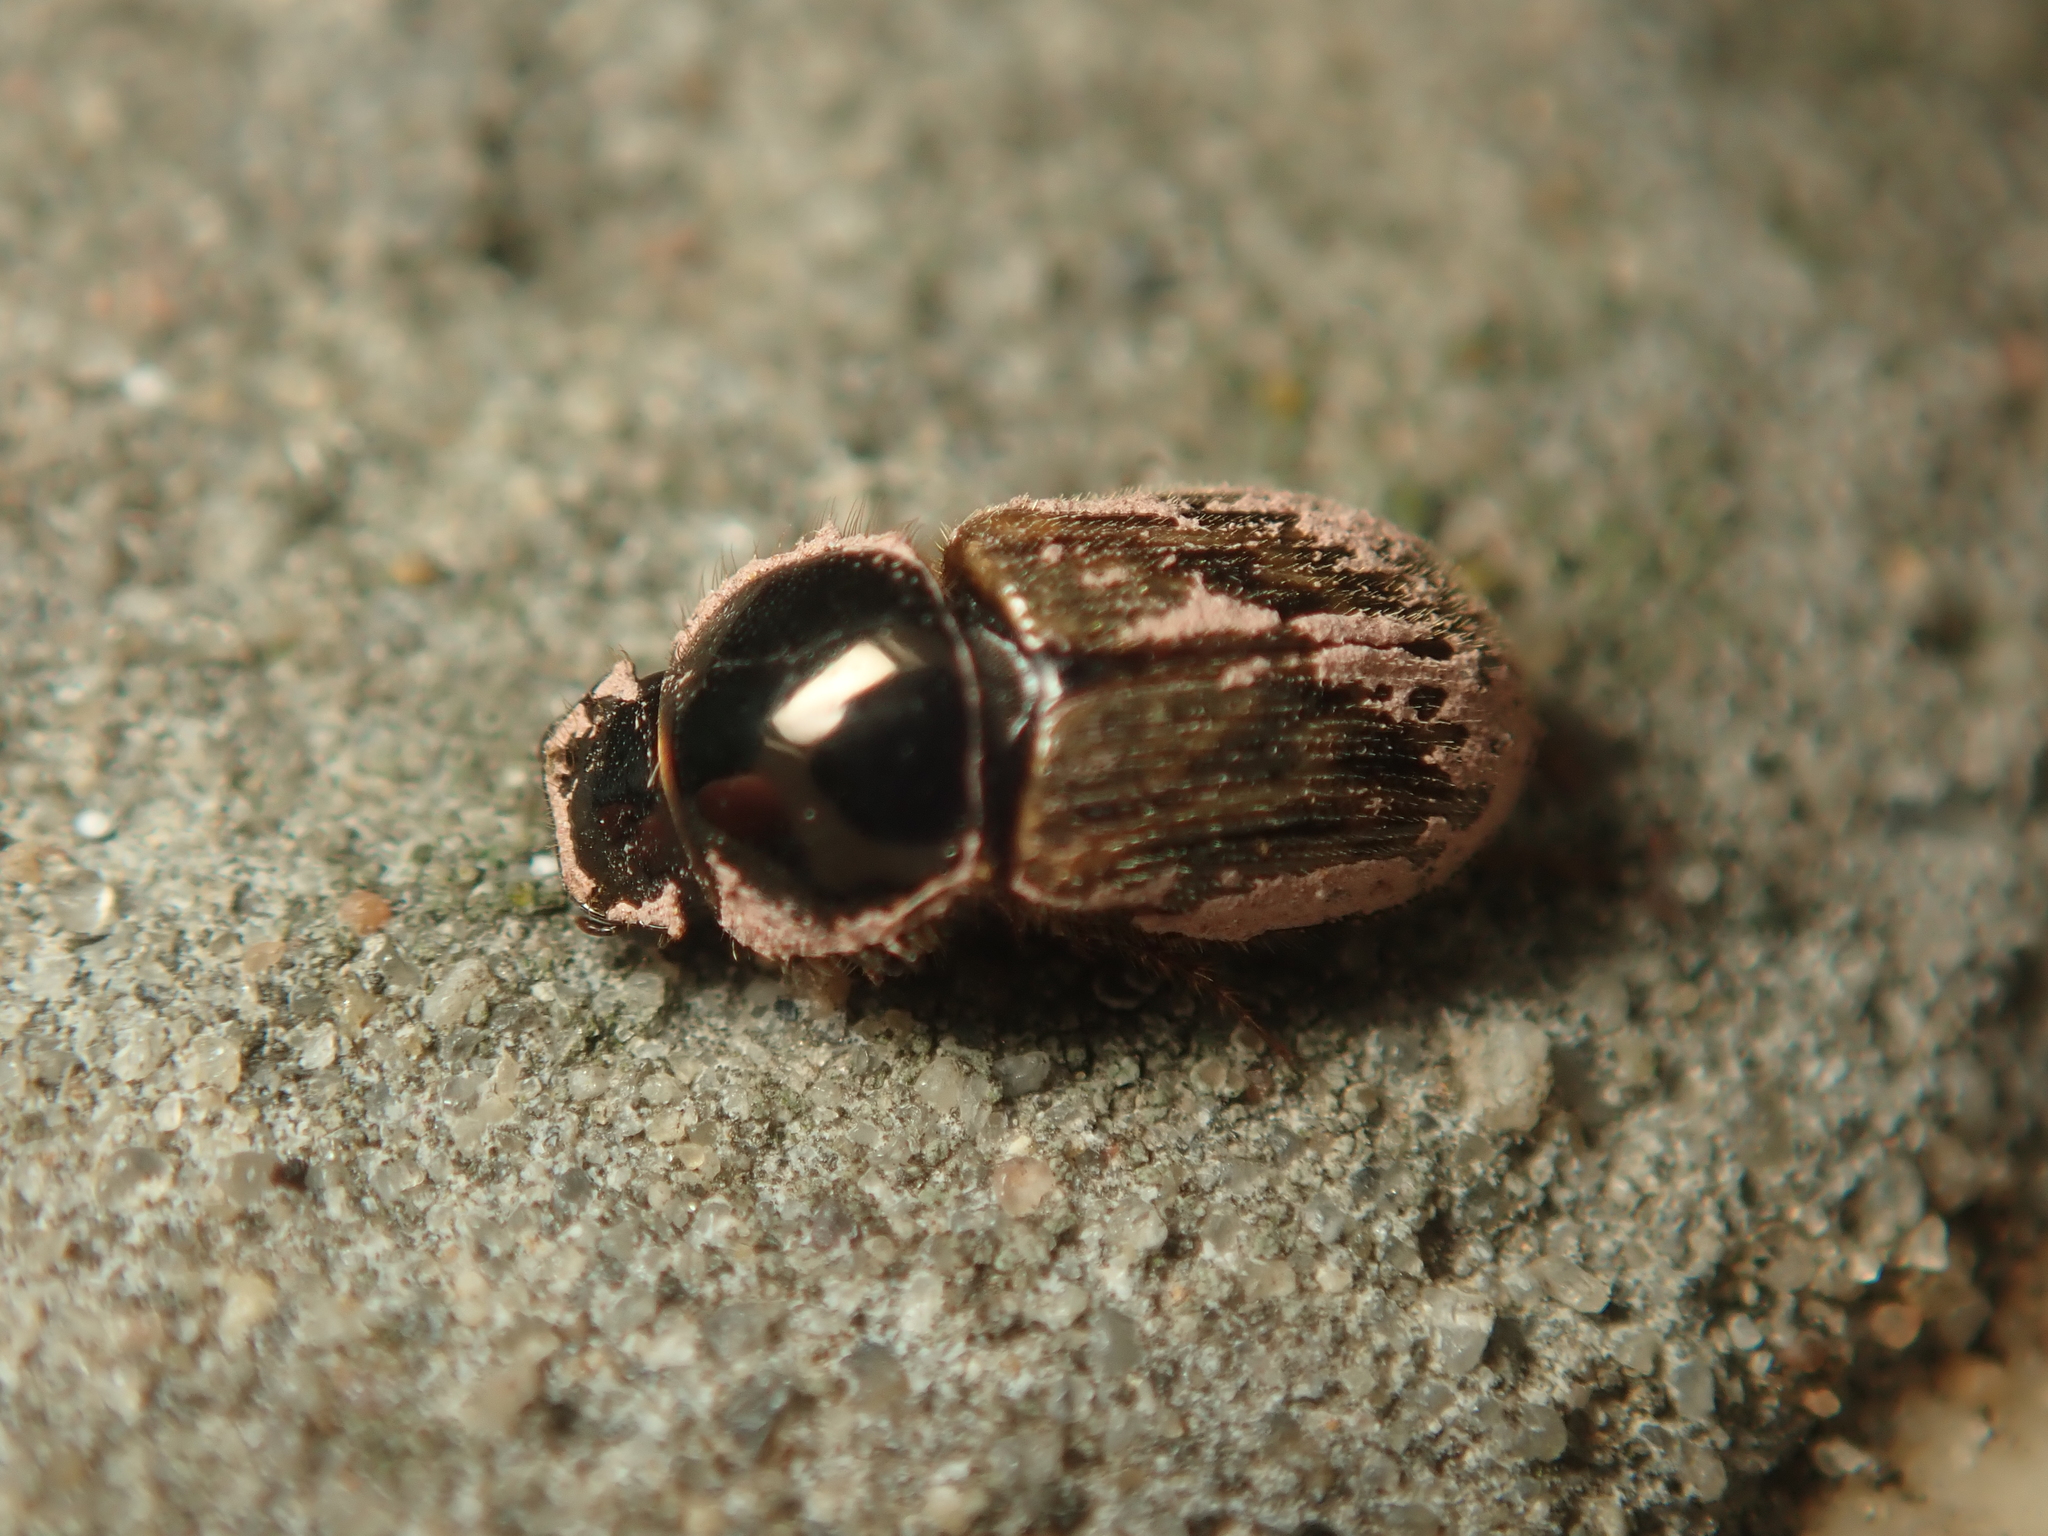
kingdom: Animalia
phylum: Arthropoda
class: Insecta
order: Coleoptera
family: Scarabaeidae
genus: Nimbus
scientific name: Nimbus contaminatus
